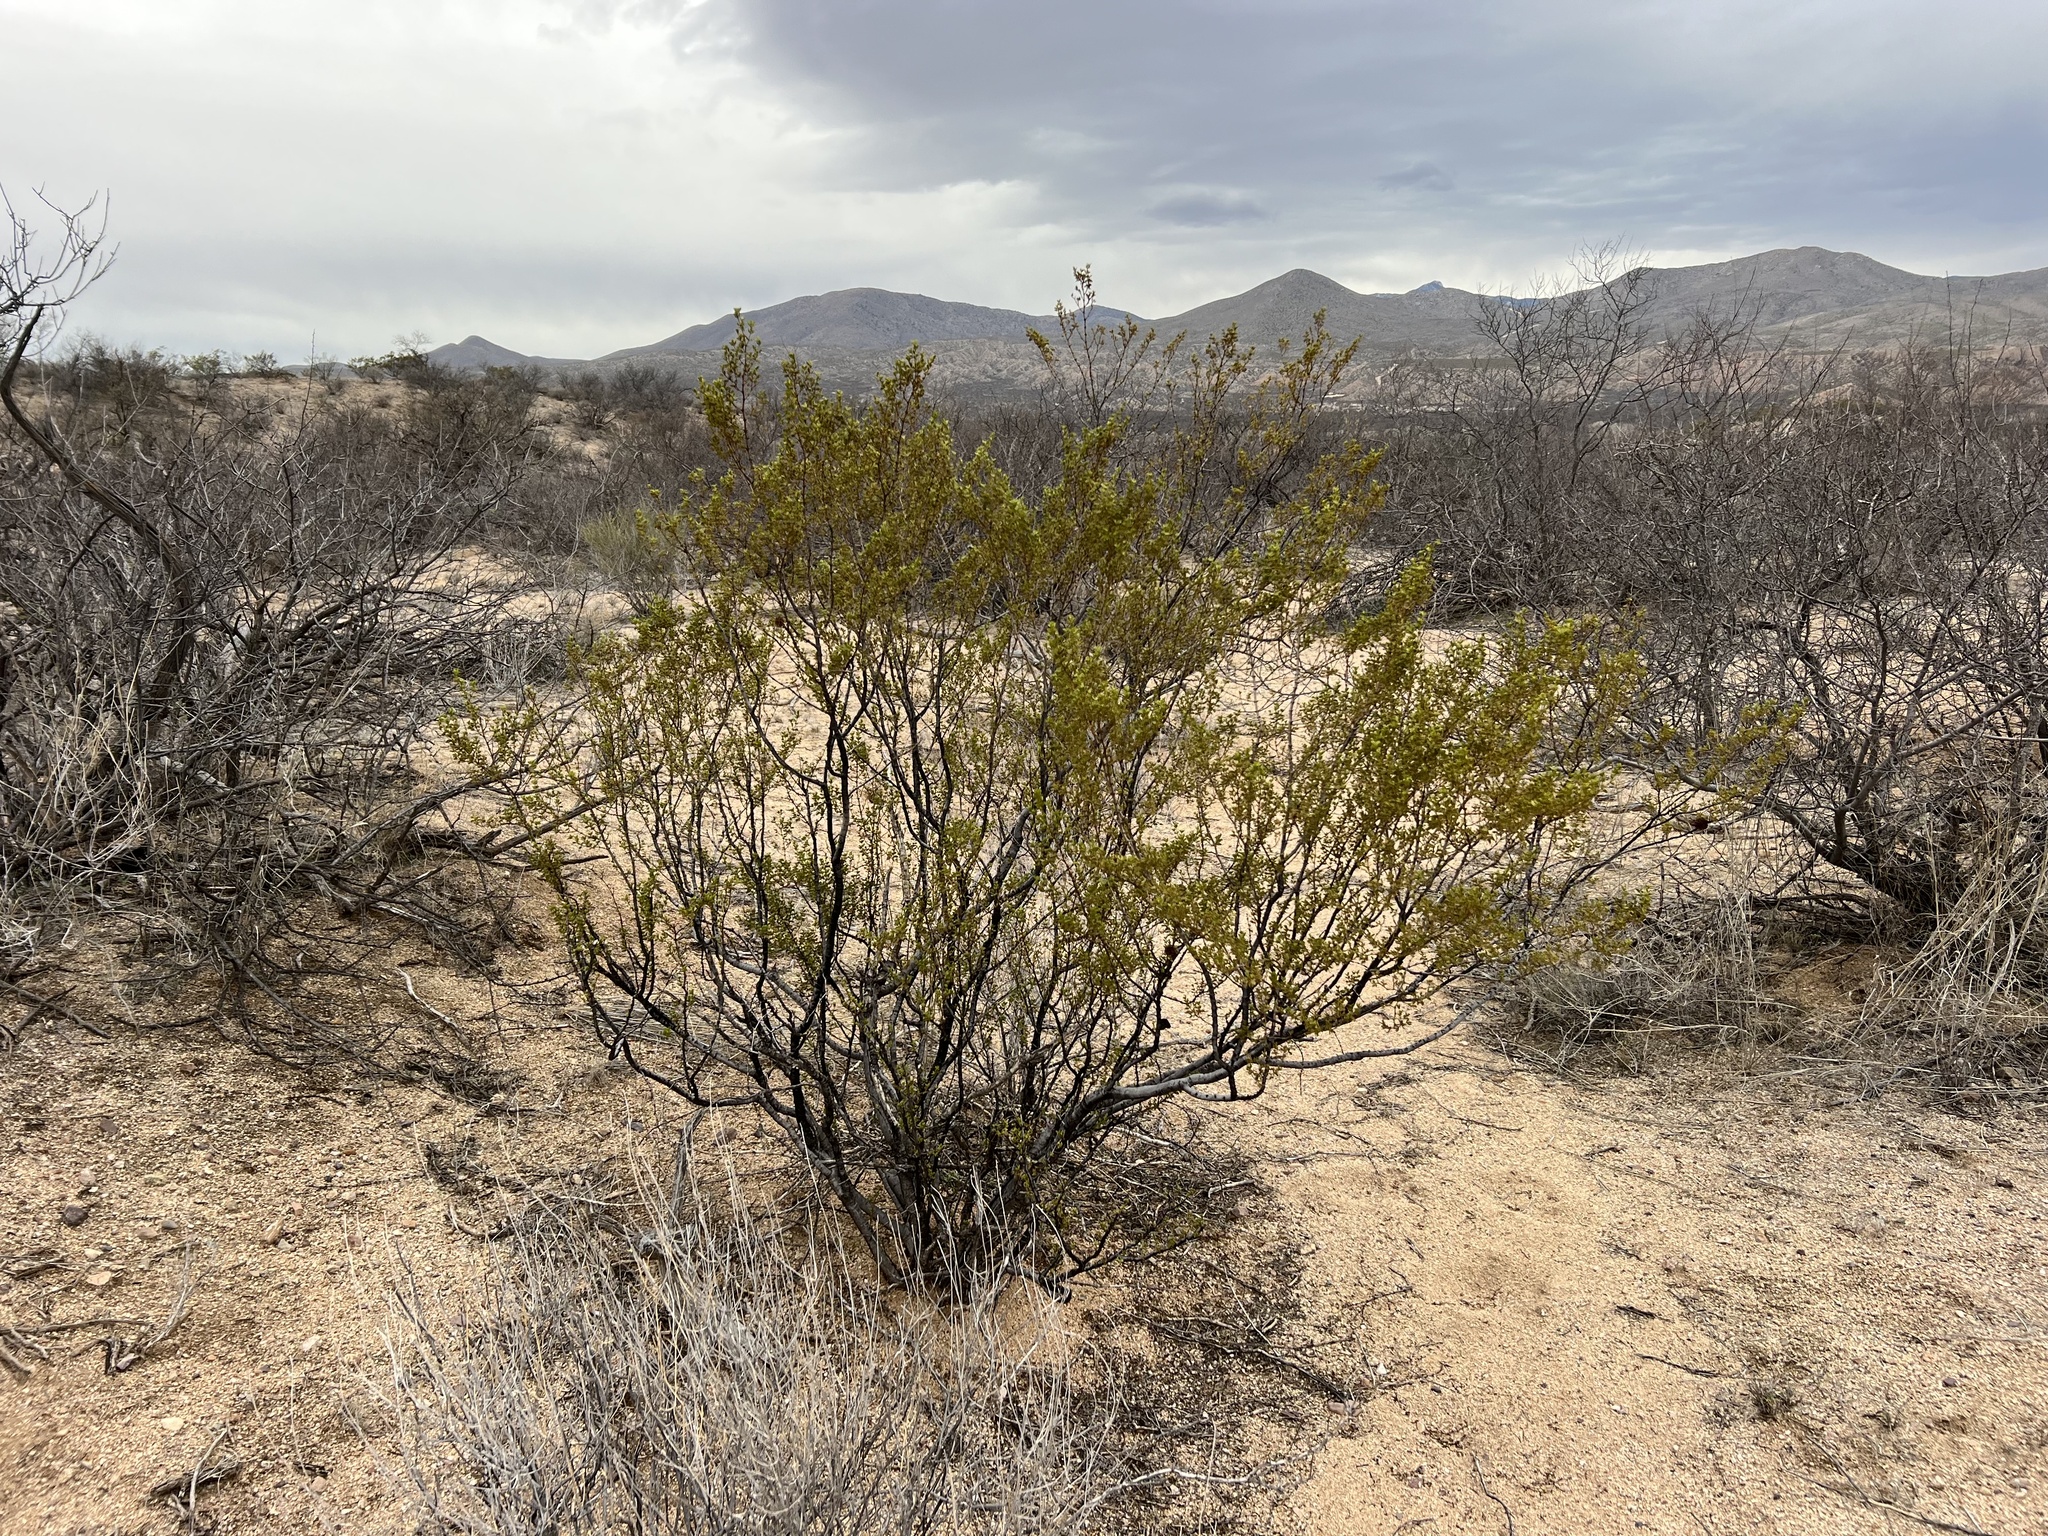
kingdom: Plantae
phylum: Tracheophyta
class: Magnoliopsida
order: Zygophyllales
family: Zygophyllaceae
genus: Larrea
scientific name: Larrea tridentata
